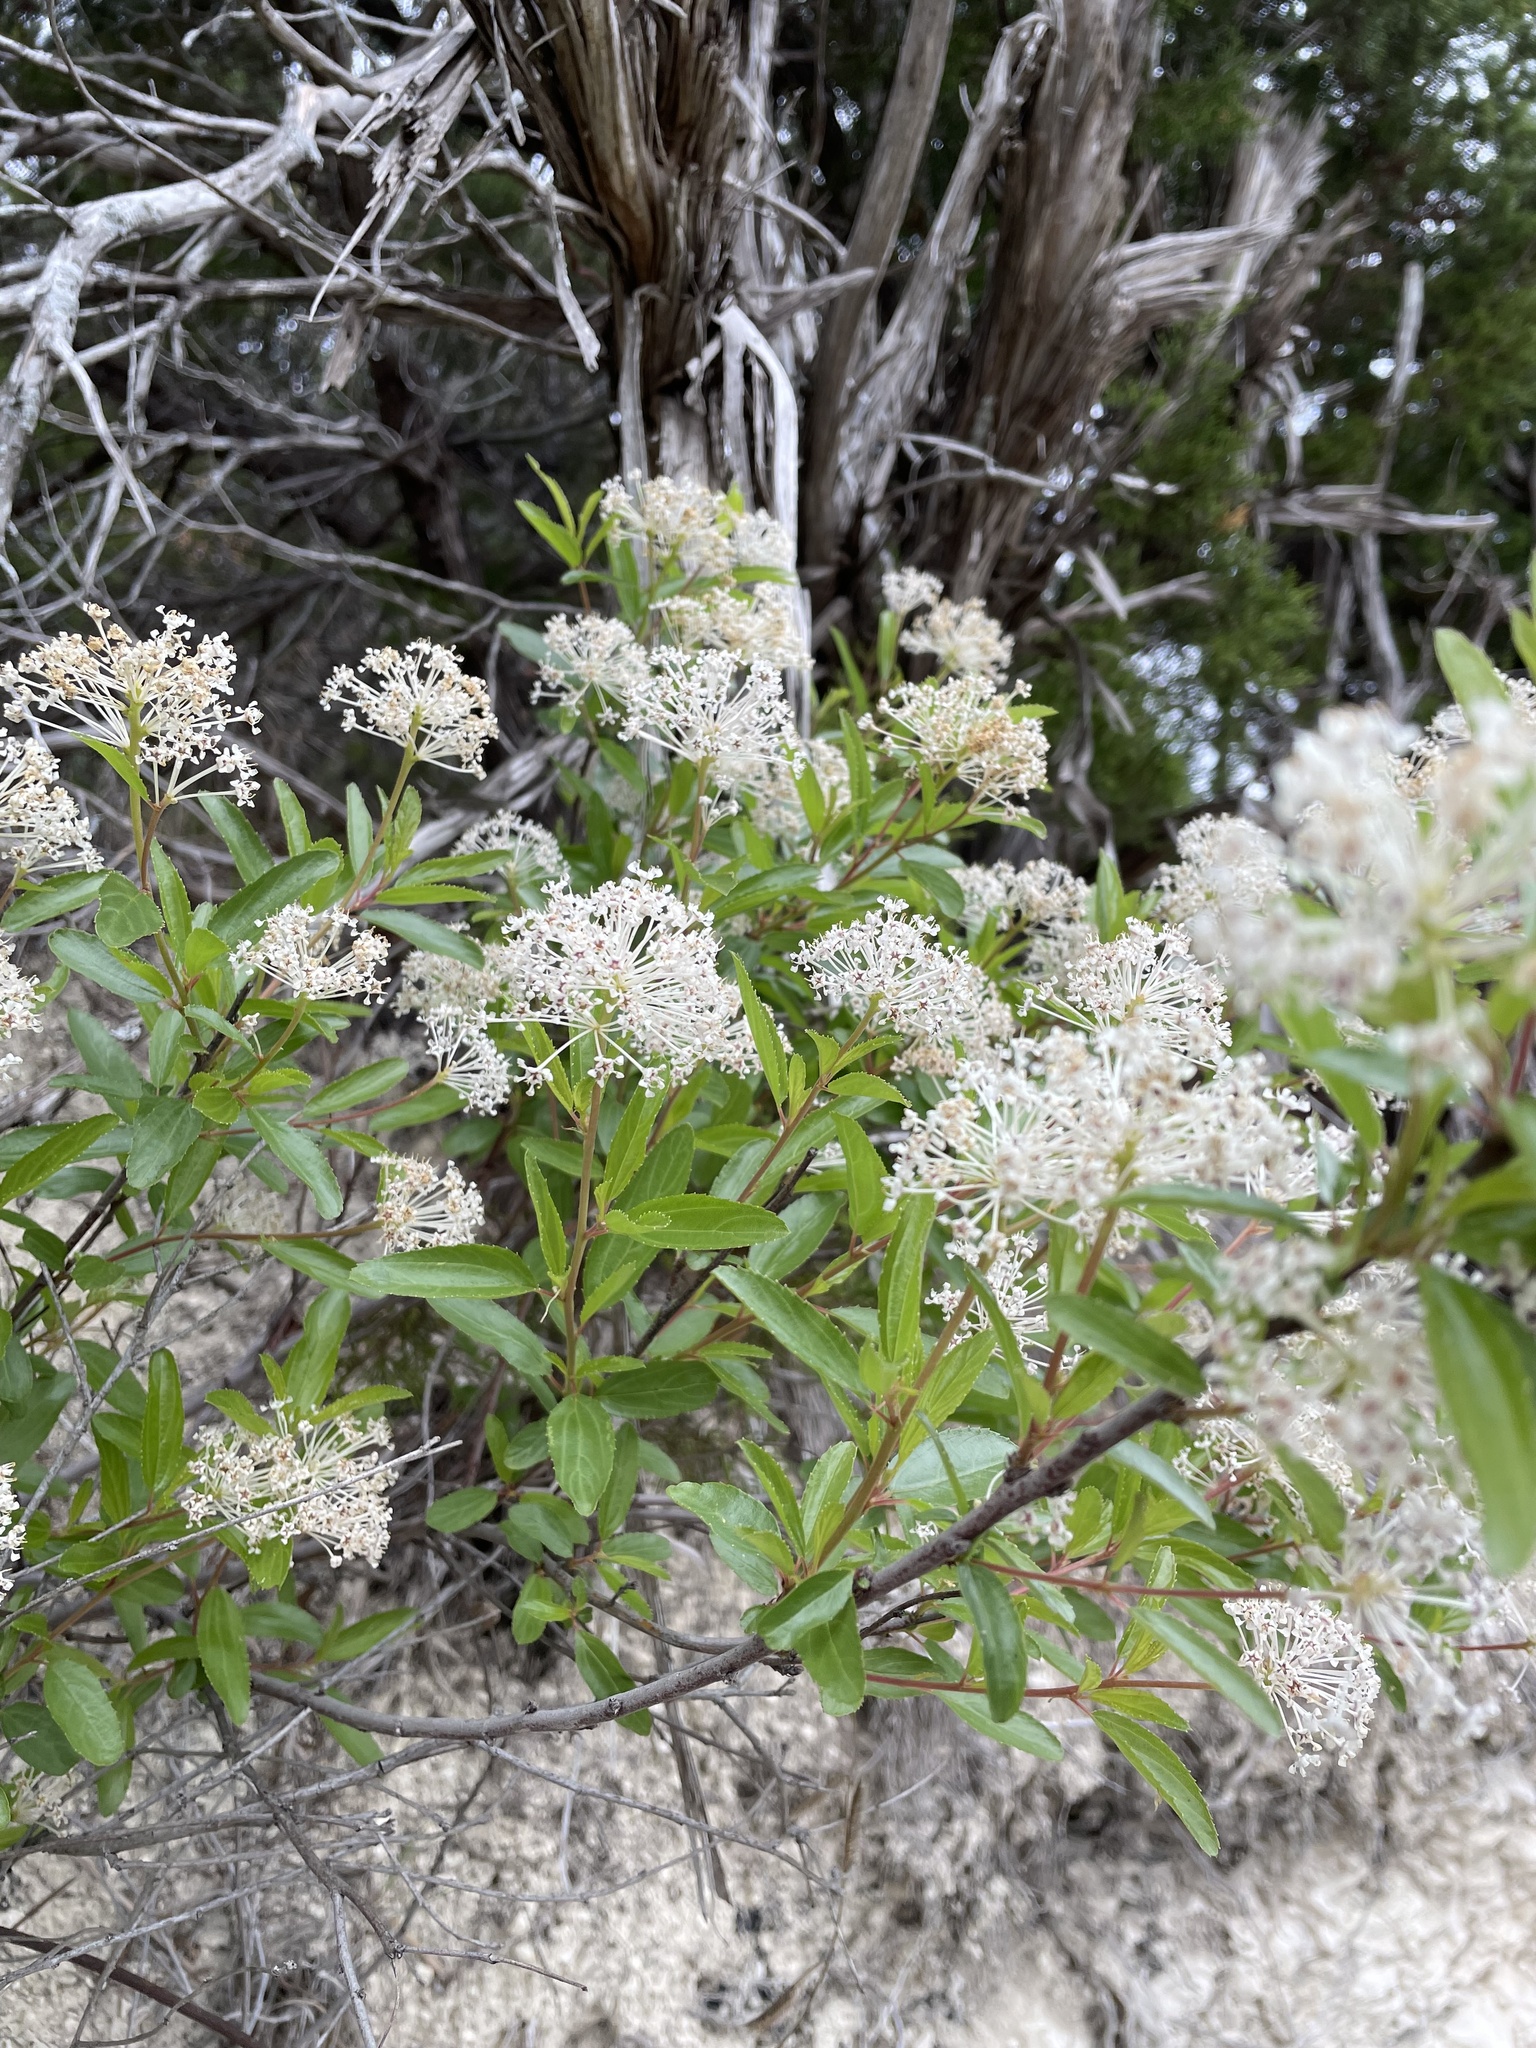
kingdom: Plantae
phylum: Tracheophyta
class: Magnoliopsida
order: Rosales
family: Rhamnaceae
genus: Ceanothus
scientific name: Ceanothus herbaceus
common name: Inland ceanothus
